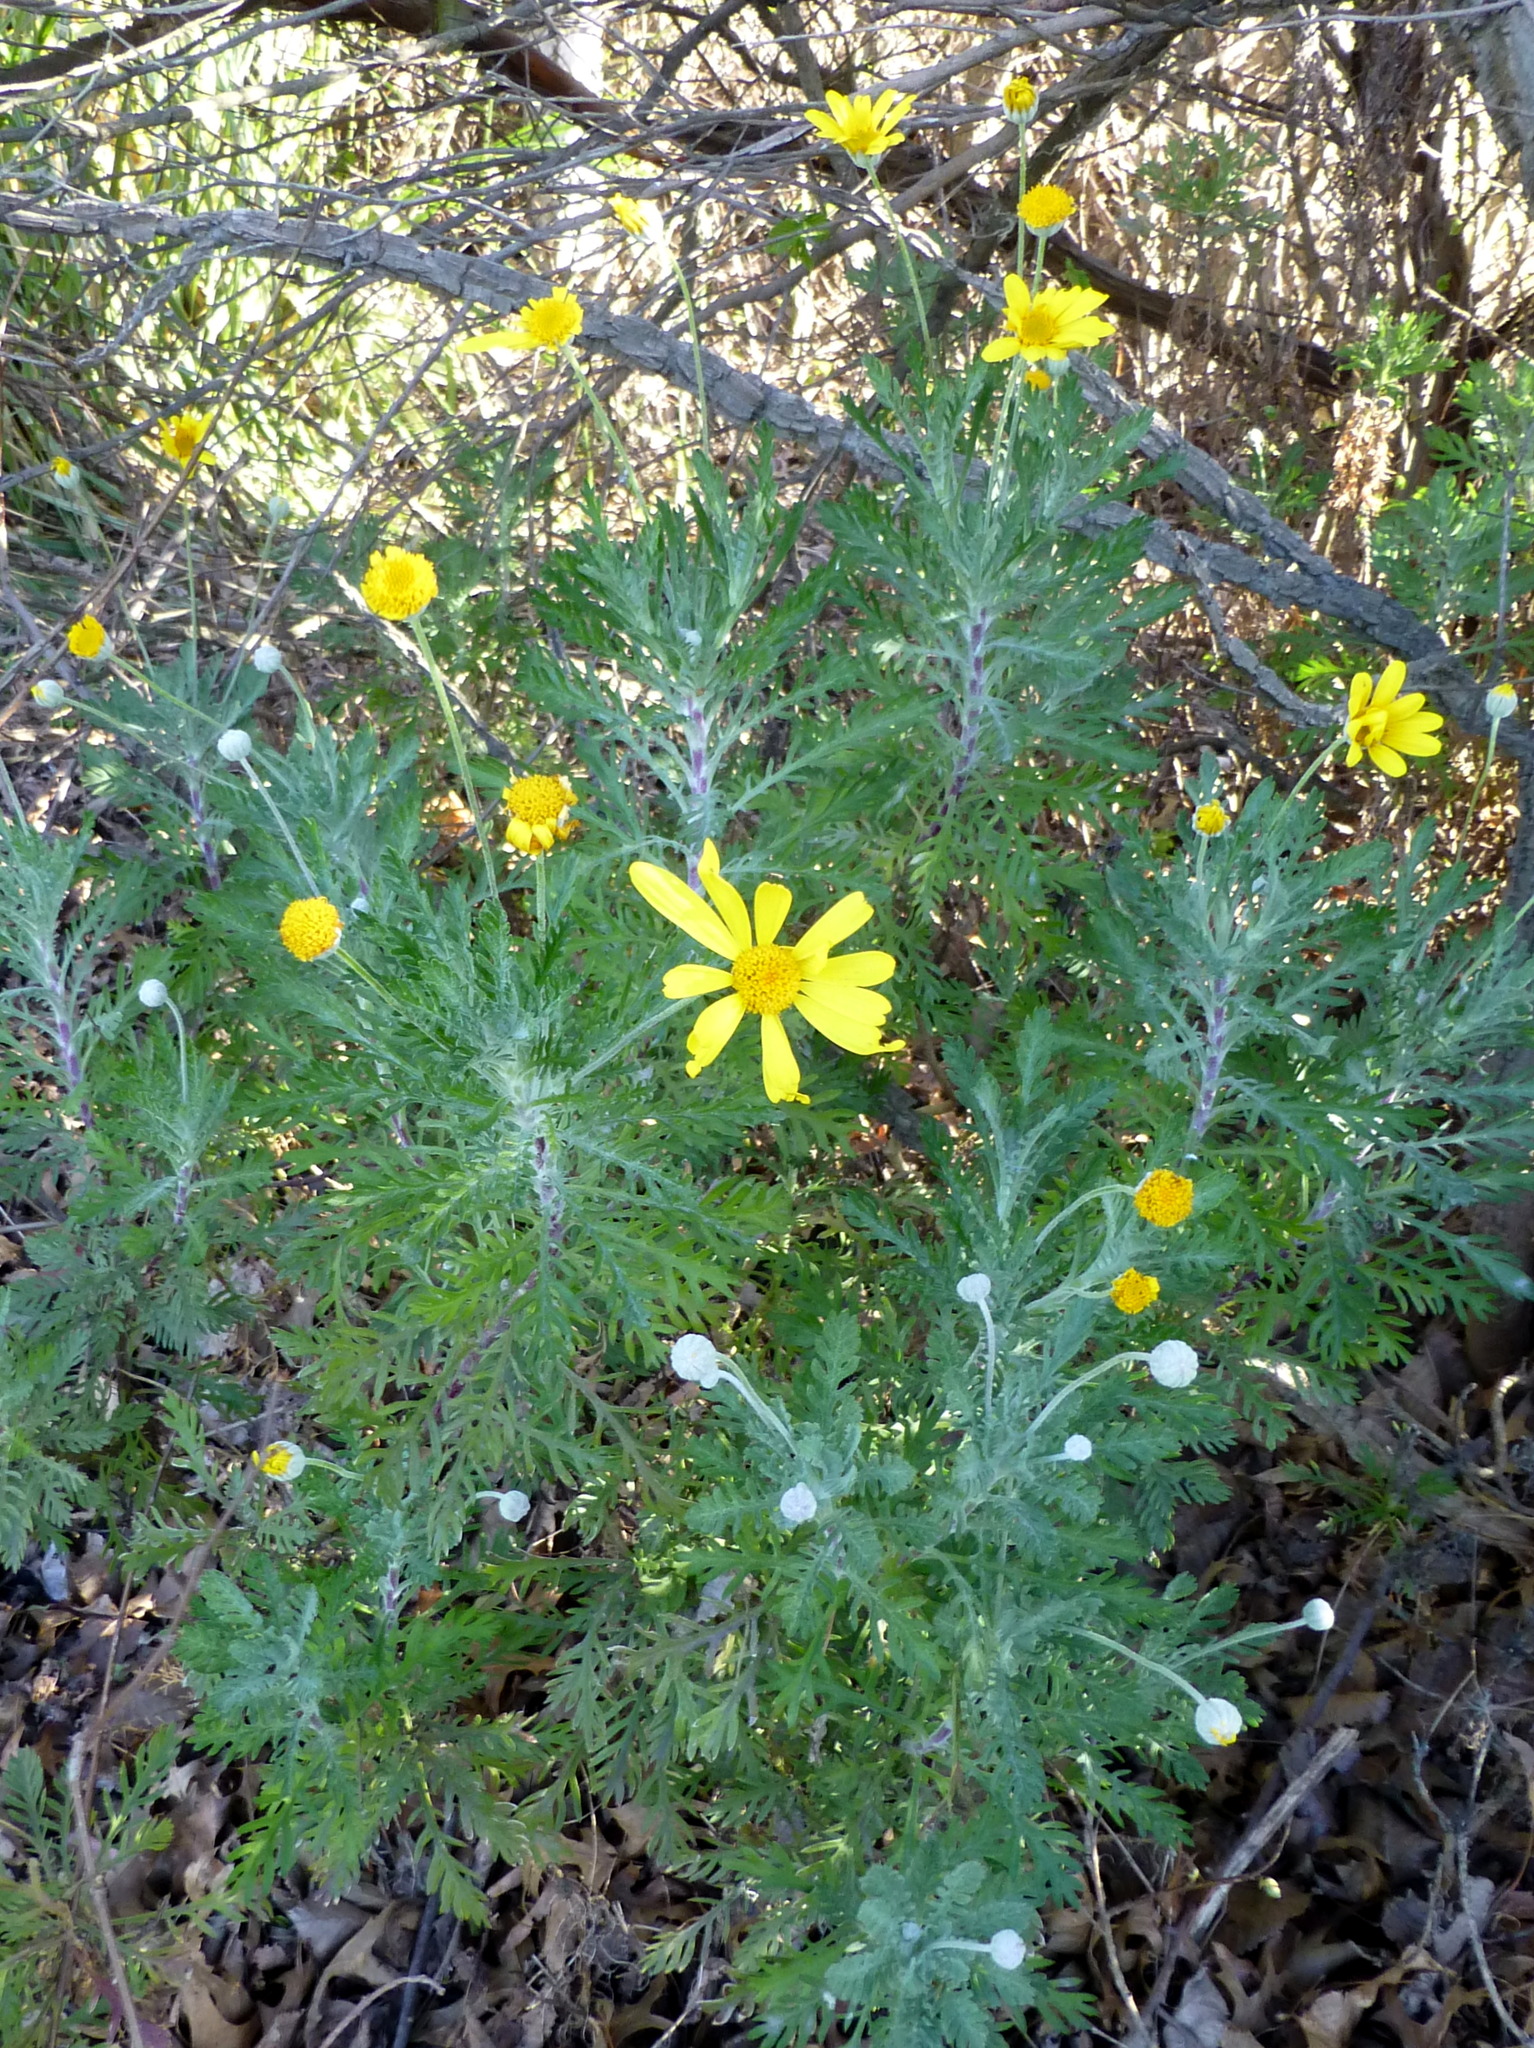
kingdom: Plantae
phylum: Tracheophyta
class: Magnoliopsida
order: Asterales
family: Asteraceae
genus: Euryops
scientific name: Euryops pectinatus
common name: Gray-leaf euryops
